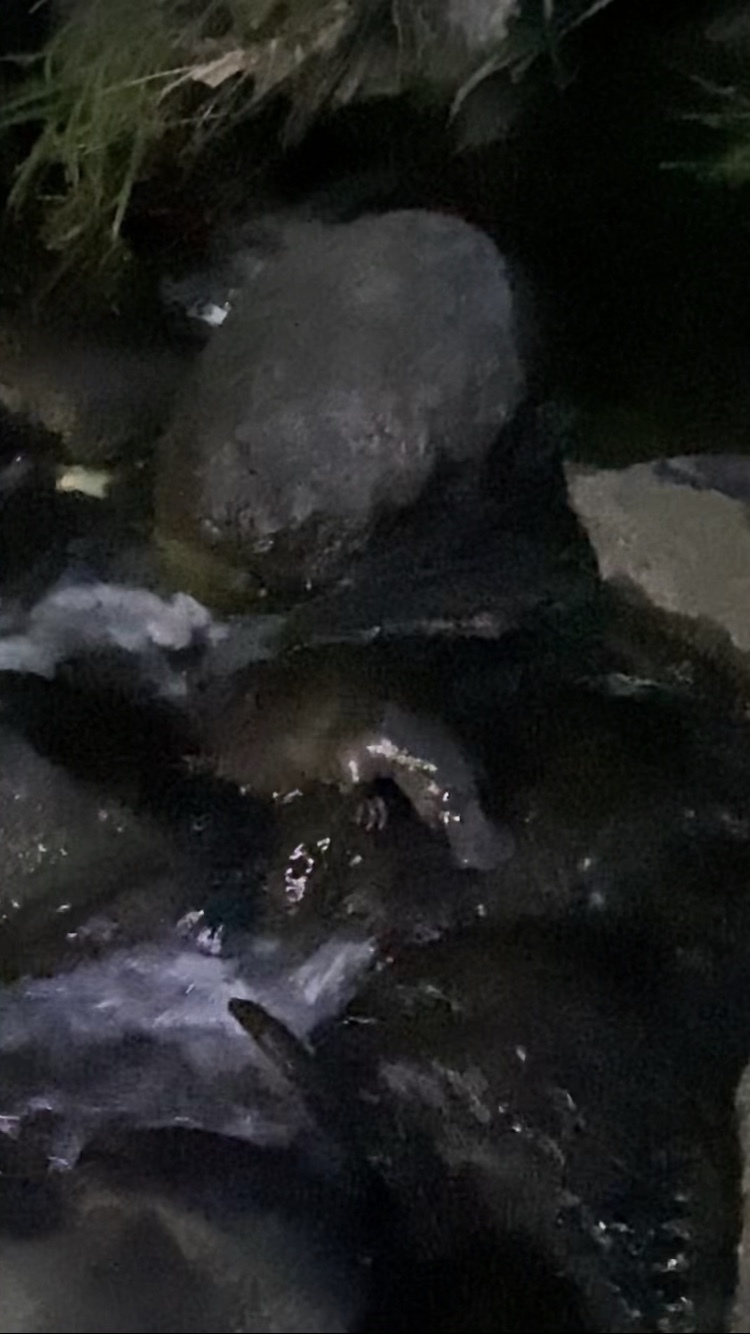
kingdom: Animalia
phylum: Chordata
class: Mammalia
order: Monotremata
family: Ornithorhynchidae
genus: Ornithorhynchus
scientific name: Ornithorhynchus anatinus
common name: Platypus
